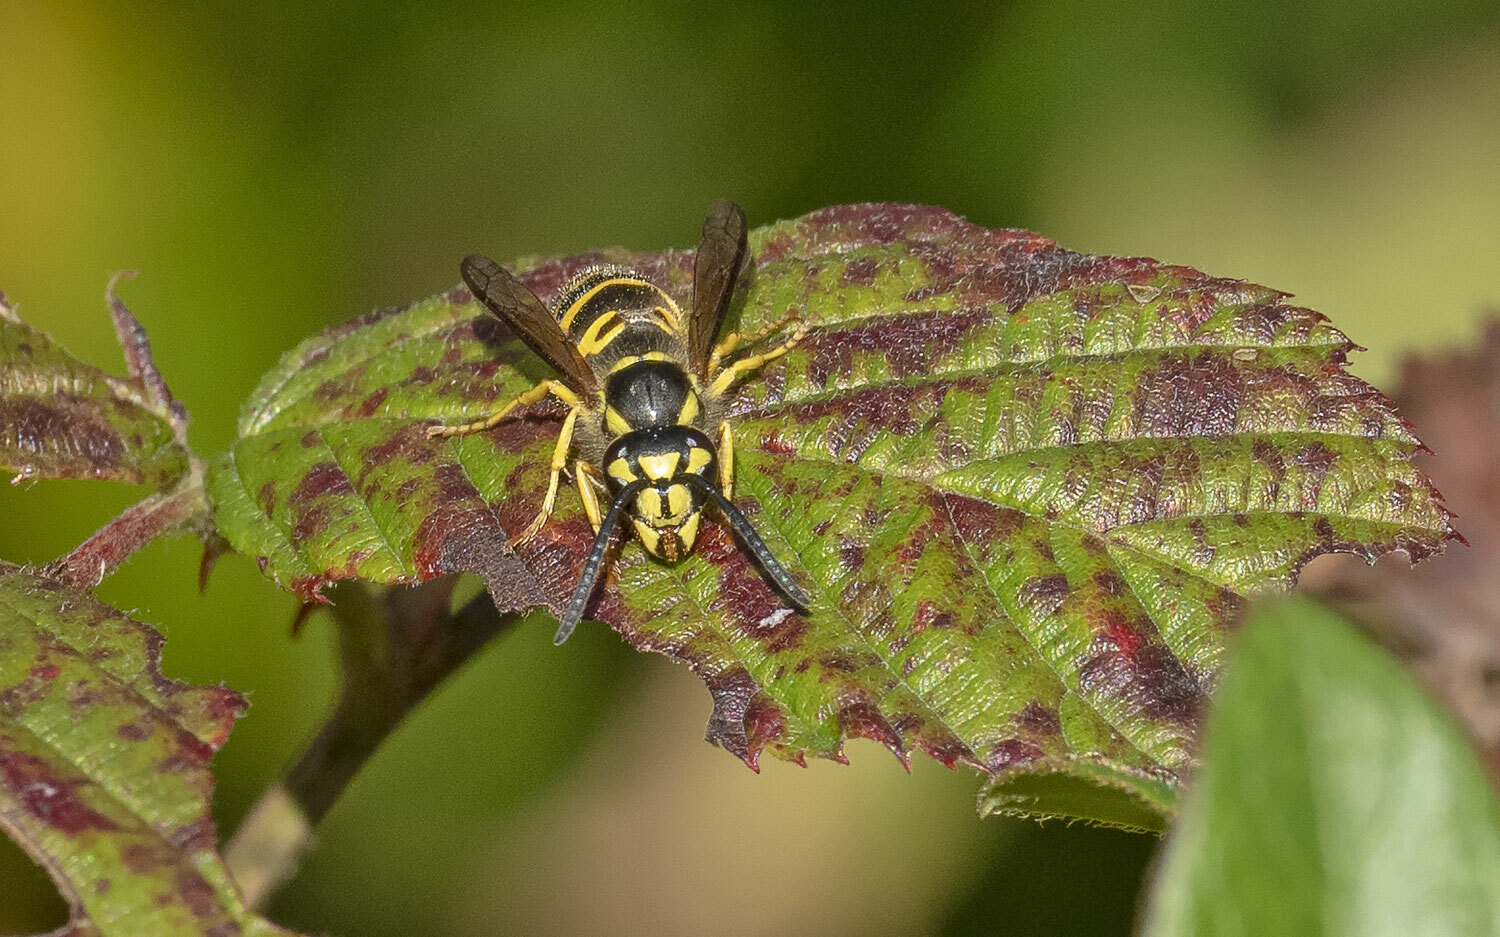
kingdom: Animalia
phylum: Arthropoda
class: Insecta
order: Hymenoptera
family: Vespidae
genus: Vespula
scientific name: Vespula maculifrons
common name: Eastern yellowjacket
